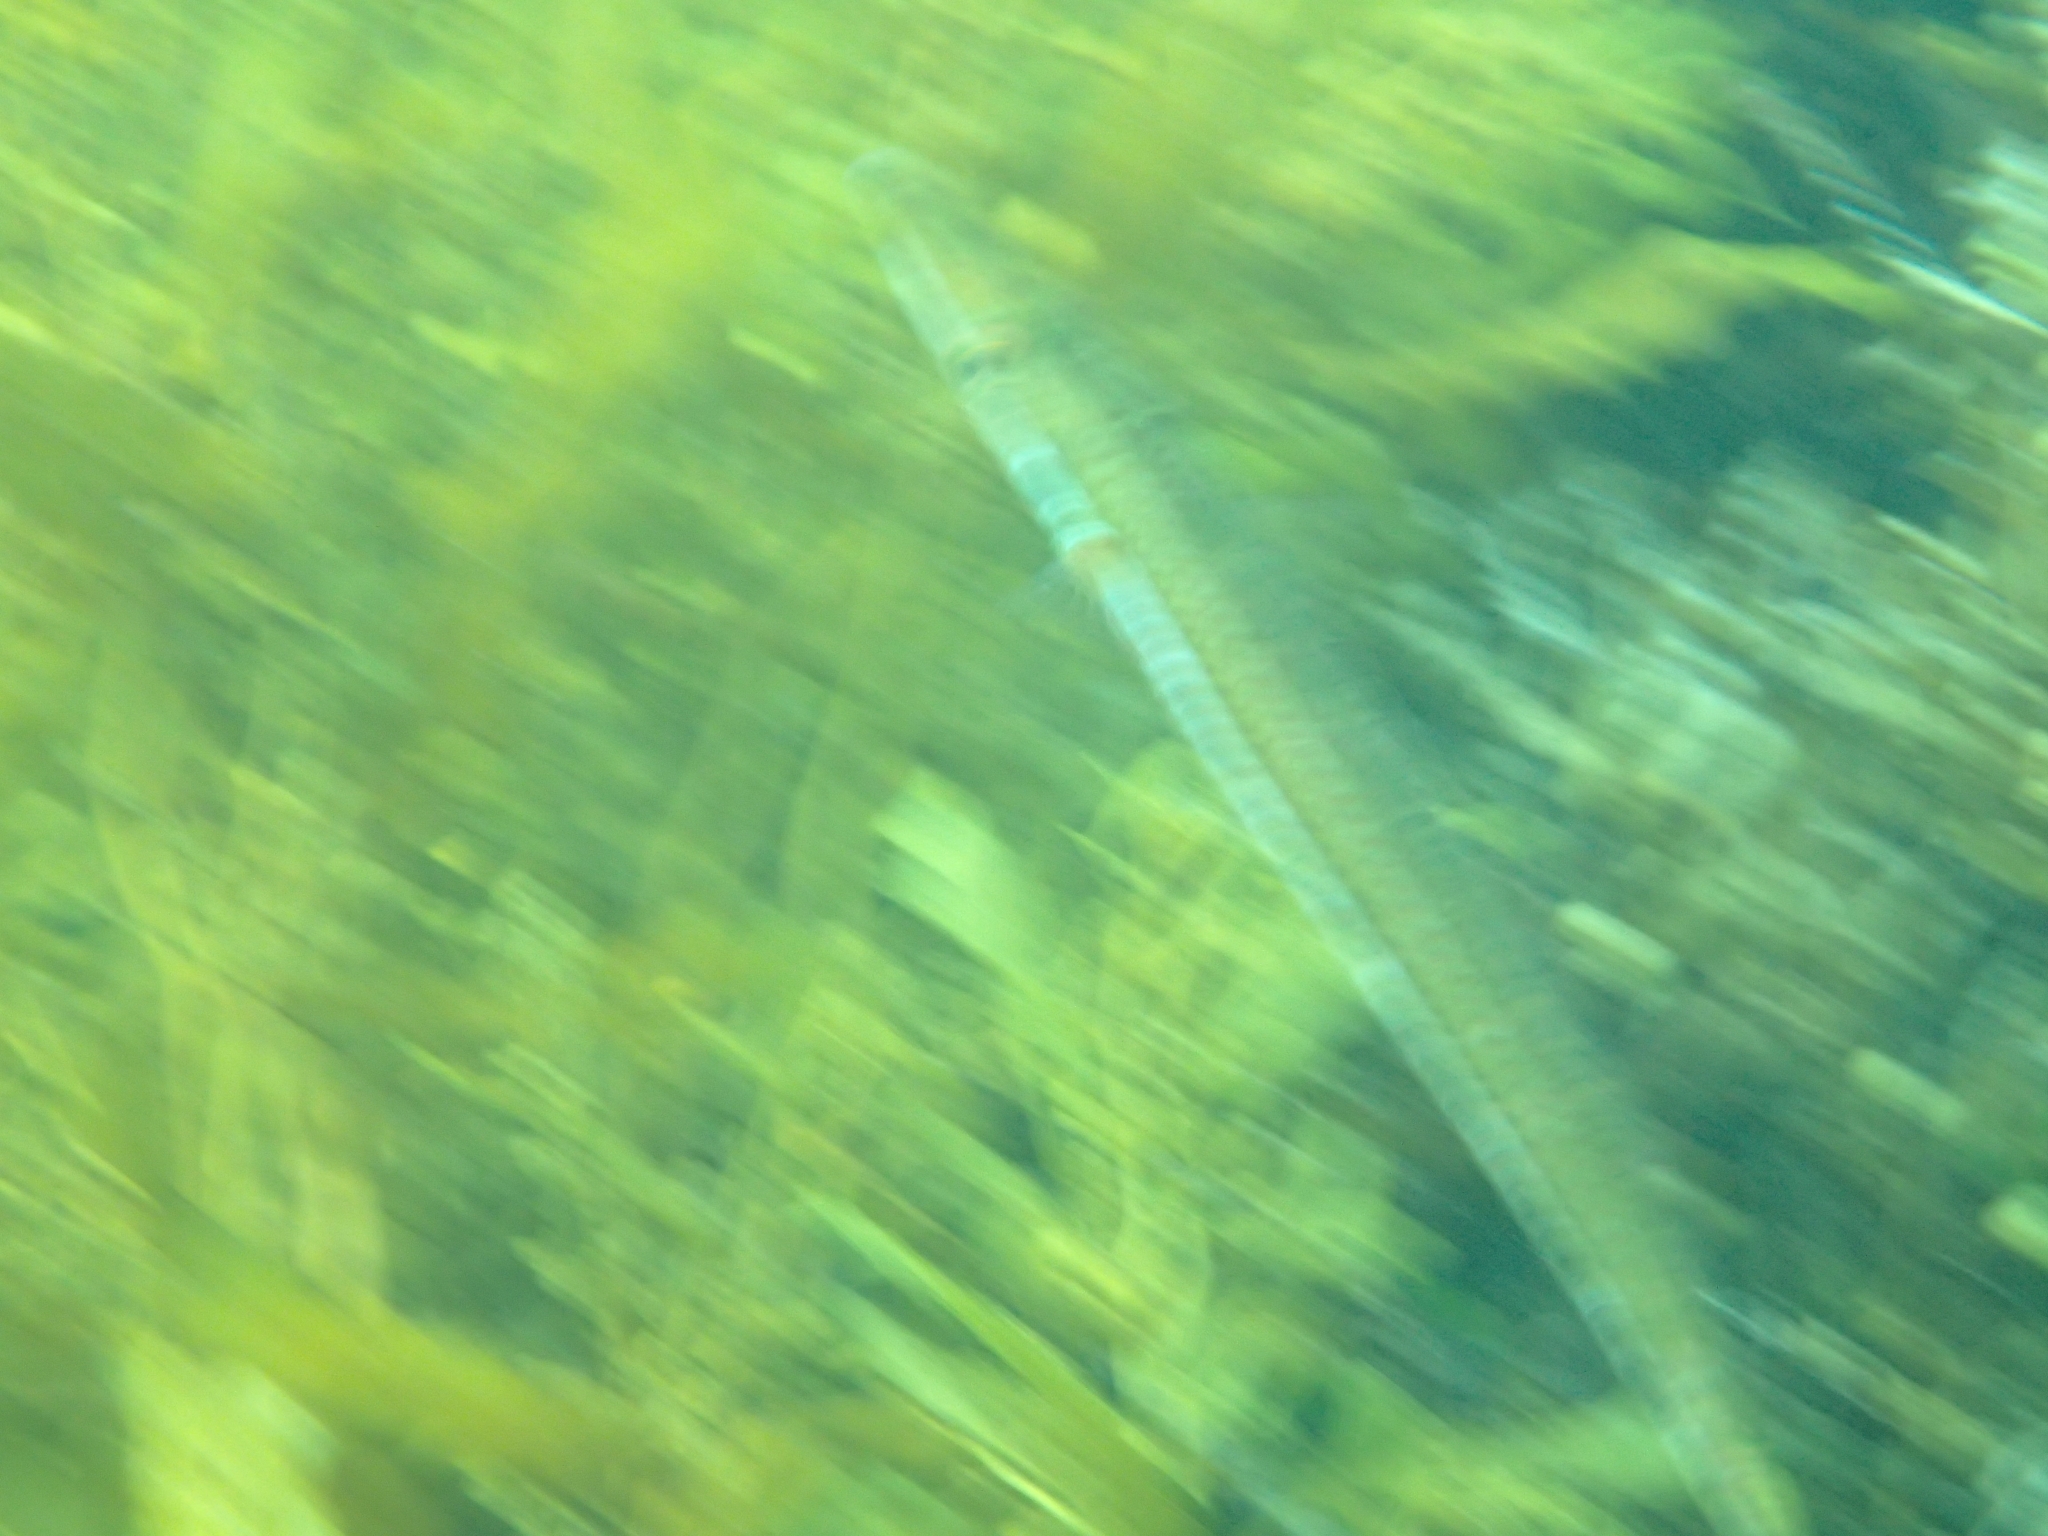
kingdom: Animalia
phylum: Chordata
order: Perciformes
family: Labridae
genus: Cheilio
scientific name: Cheilio inermis
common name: Cigar wrasse
